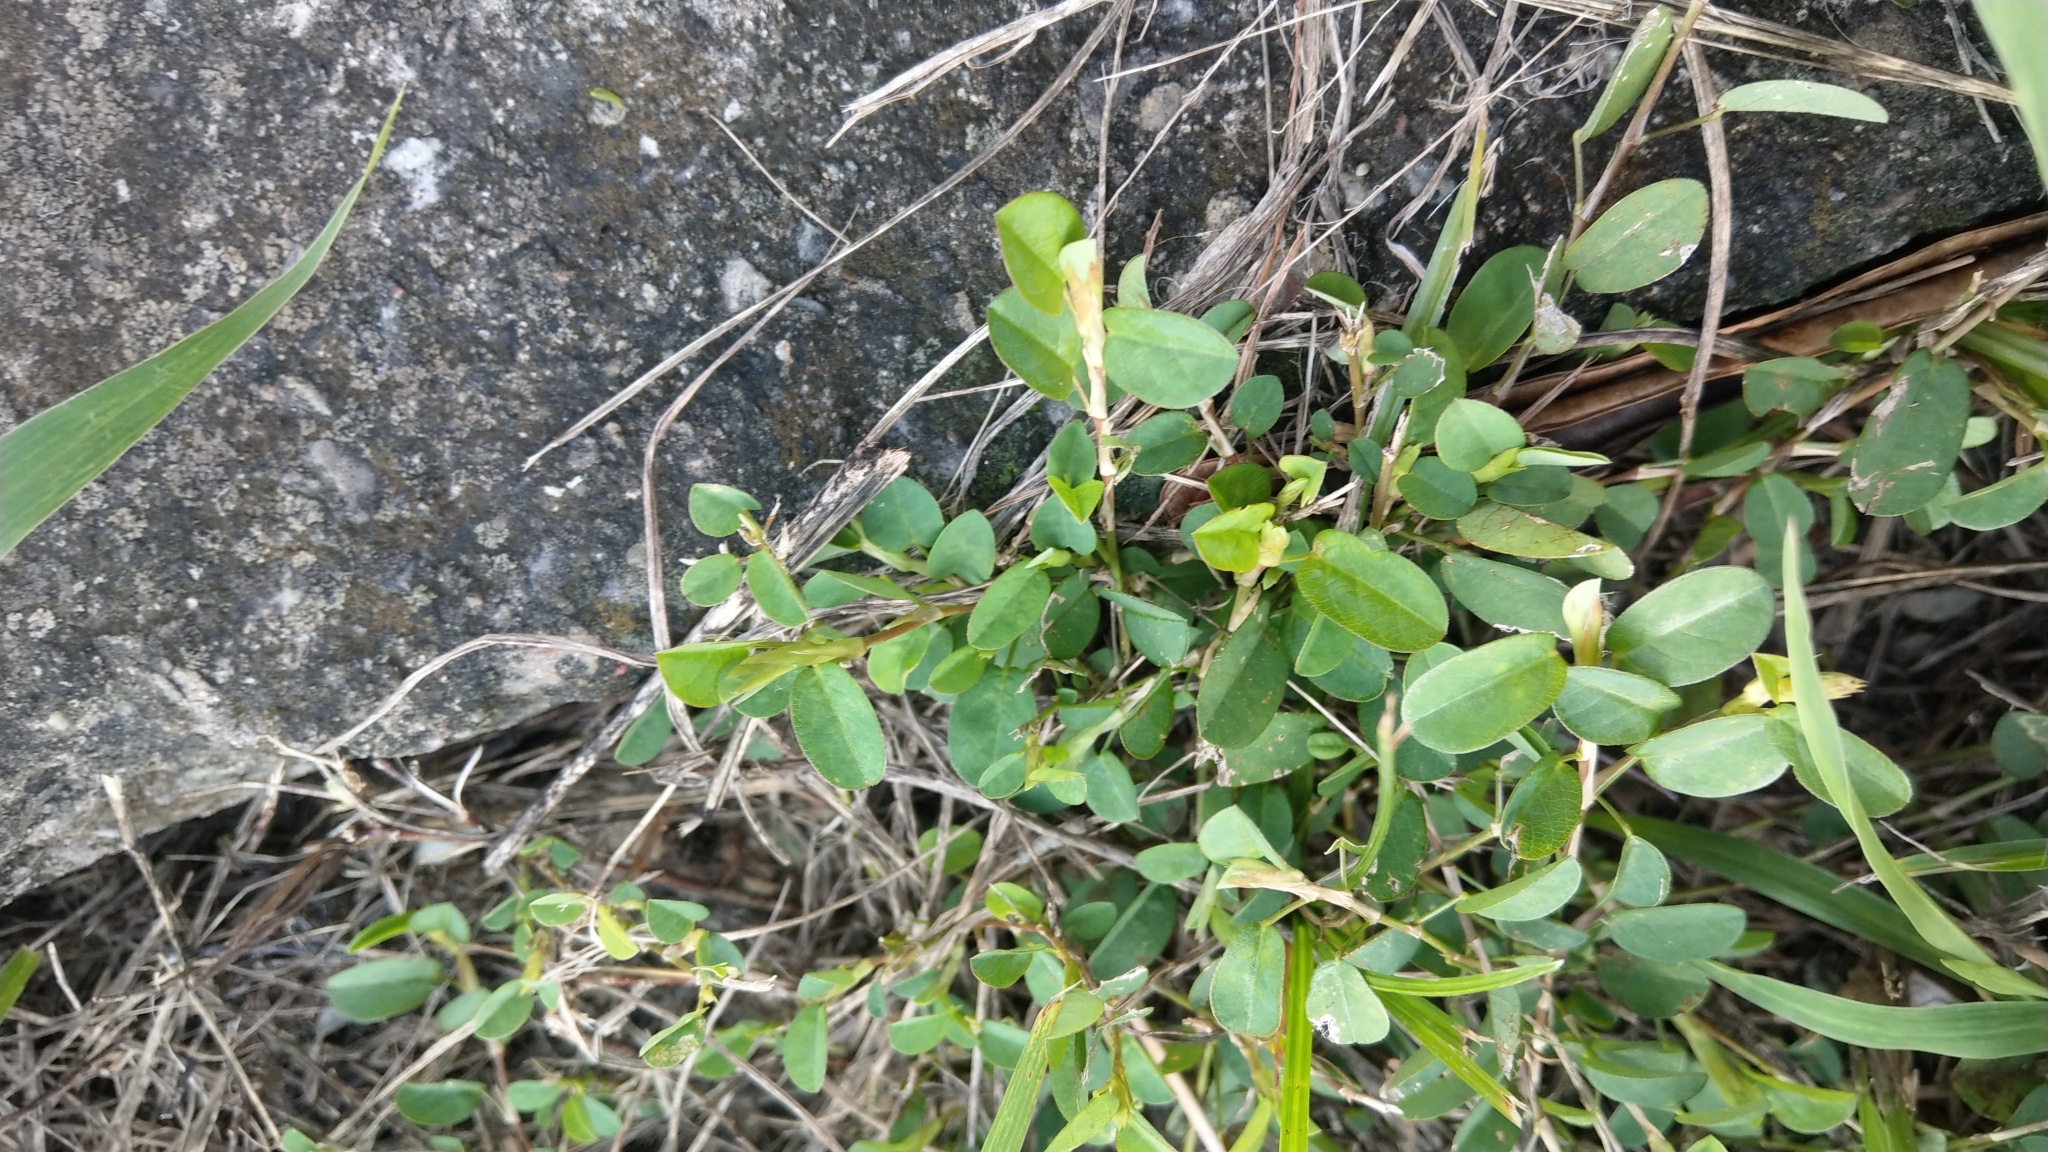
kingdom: Plantae
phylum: Tracheophyta
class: Magnoliopsida
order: Fabales
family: Fabaceae
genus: Alysicarpus
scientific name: Alysicarpus vaginalis
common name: White moneywort
